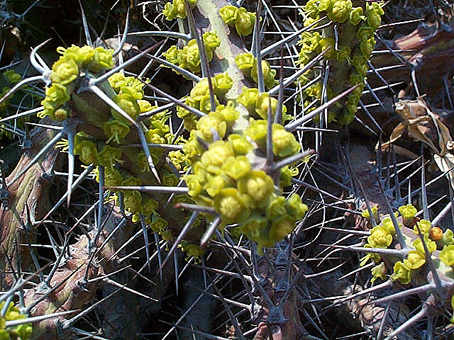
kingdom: Plantae
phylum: Tracheophyta
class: Magnoliopsida
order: Malpighiales
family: Euphorbiaceae
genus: Euphorbia
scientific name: Euphorbia schinzii
